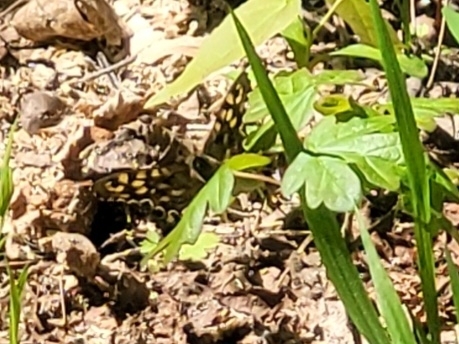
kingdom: Animalia
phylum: Arthropoda
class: Insecta
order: Lepidoptera
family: Nymphalidae
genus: Pararge
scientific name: Pararge aegeria
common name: Speckled wood
